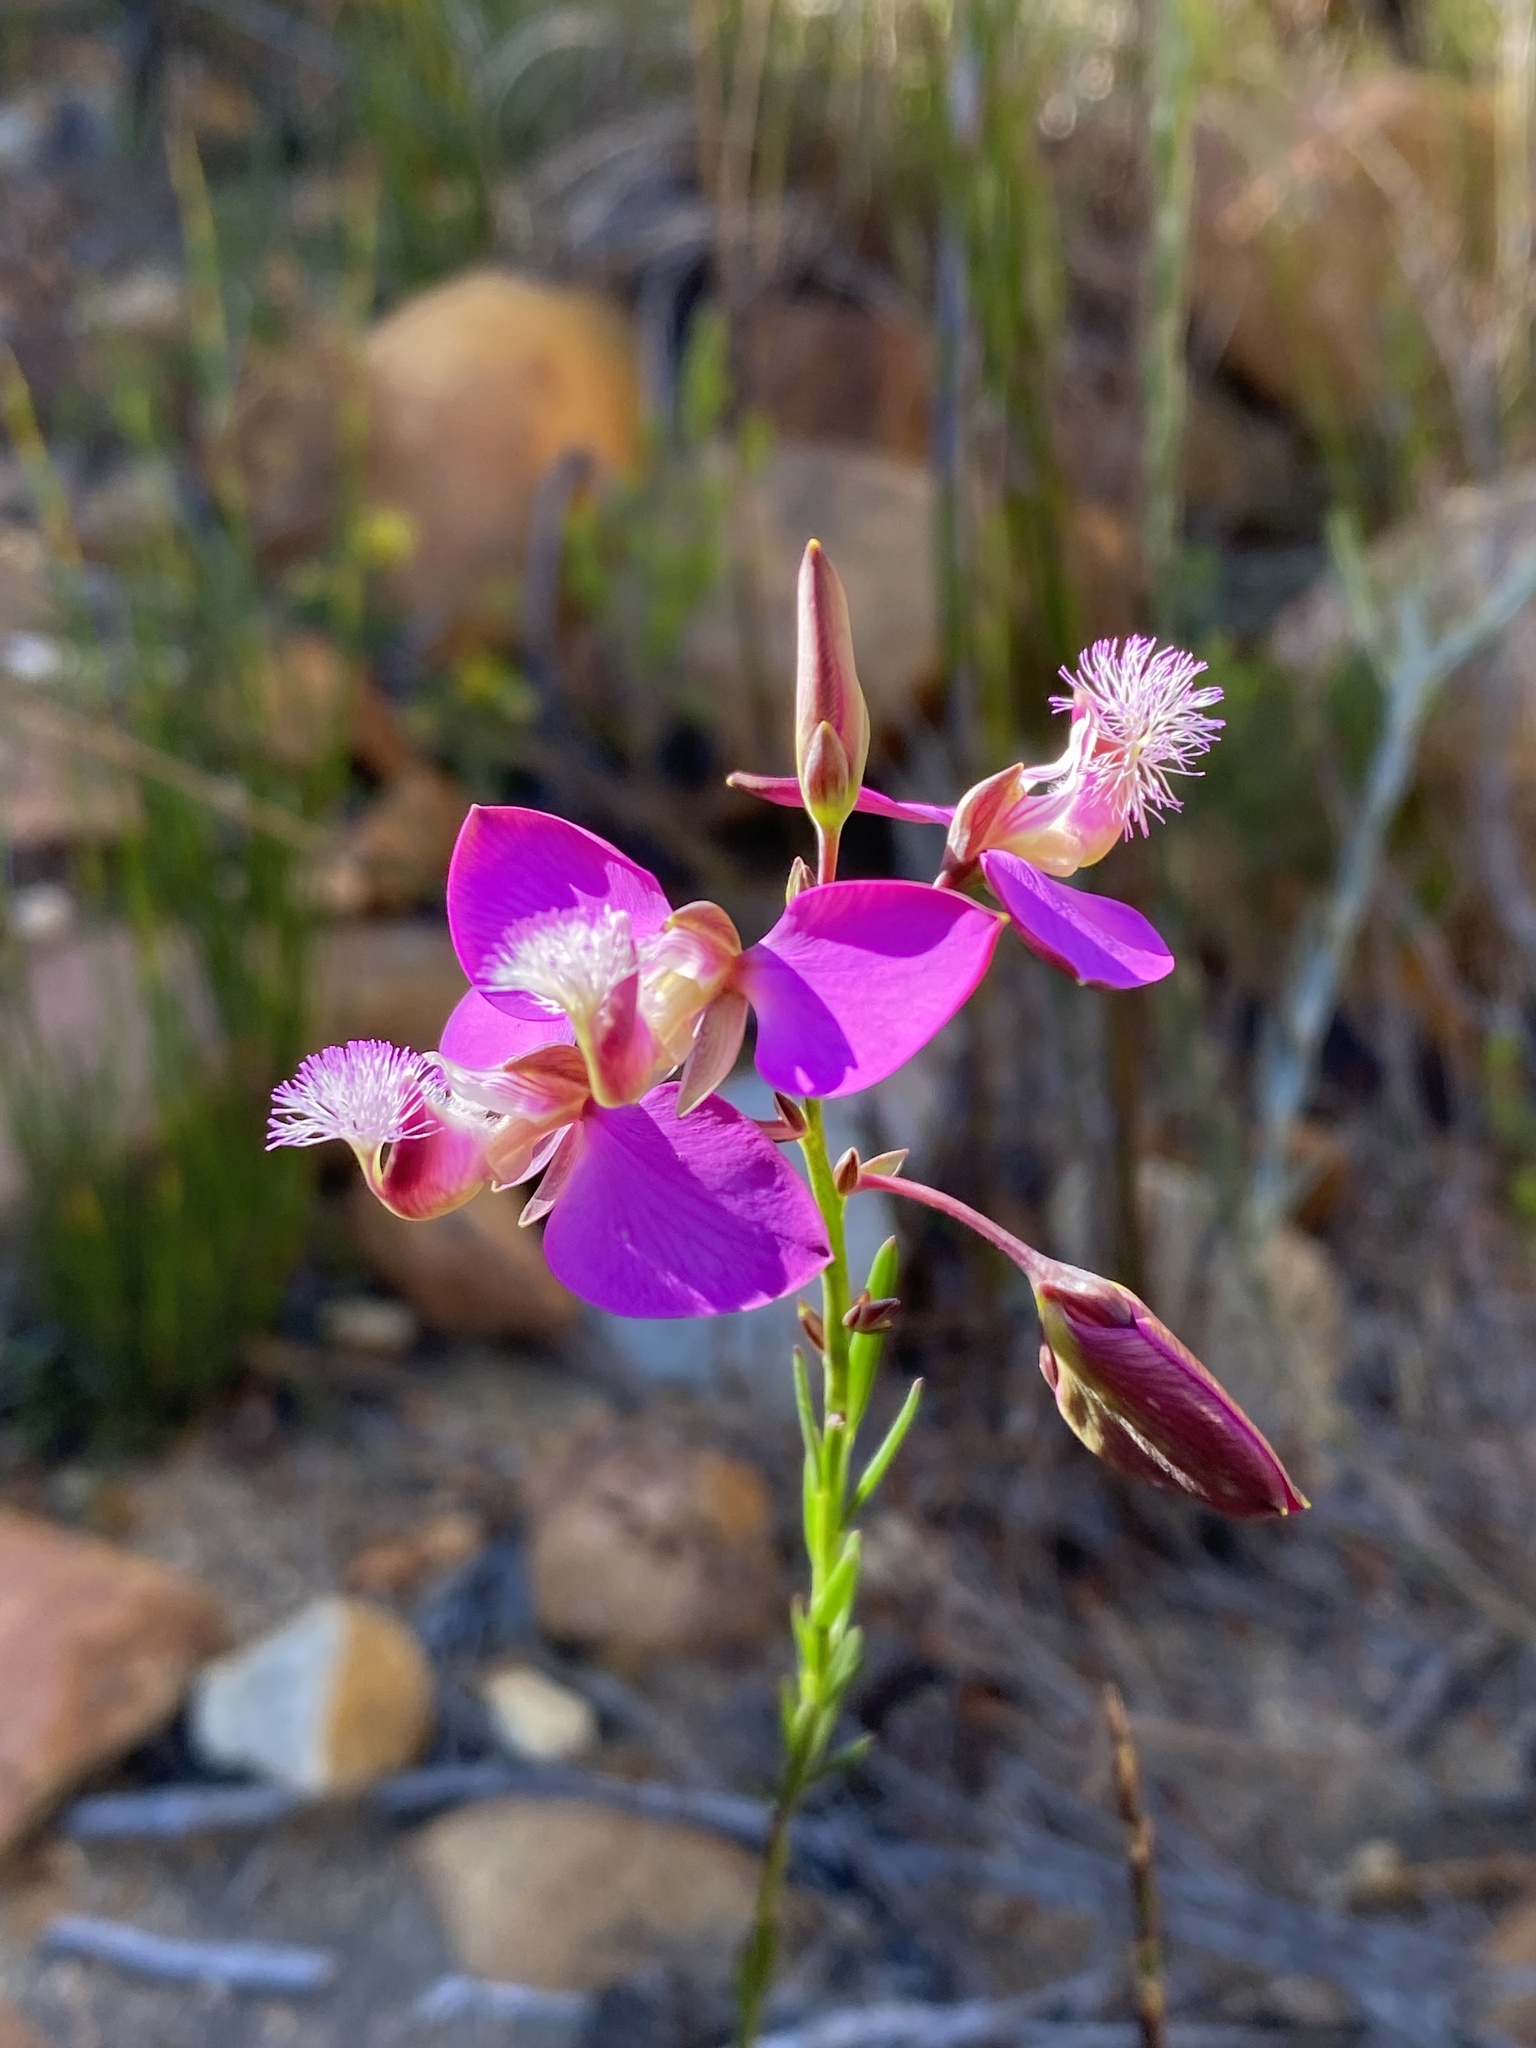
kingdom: Plantae
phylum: Tracheophyta
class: Magnoliopsida
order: Fabales
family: Polygalaceae
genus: Polygala
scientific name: Polygala bracteolata
